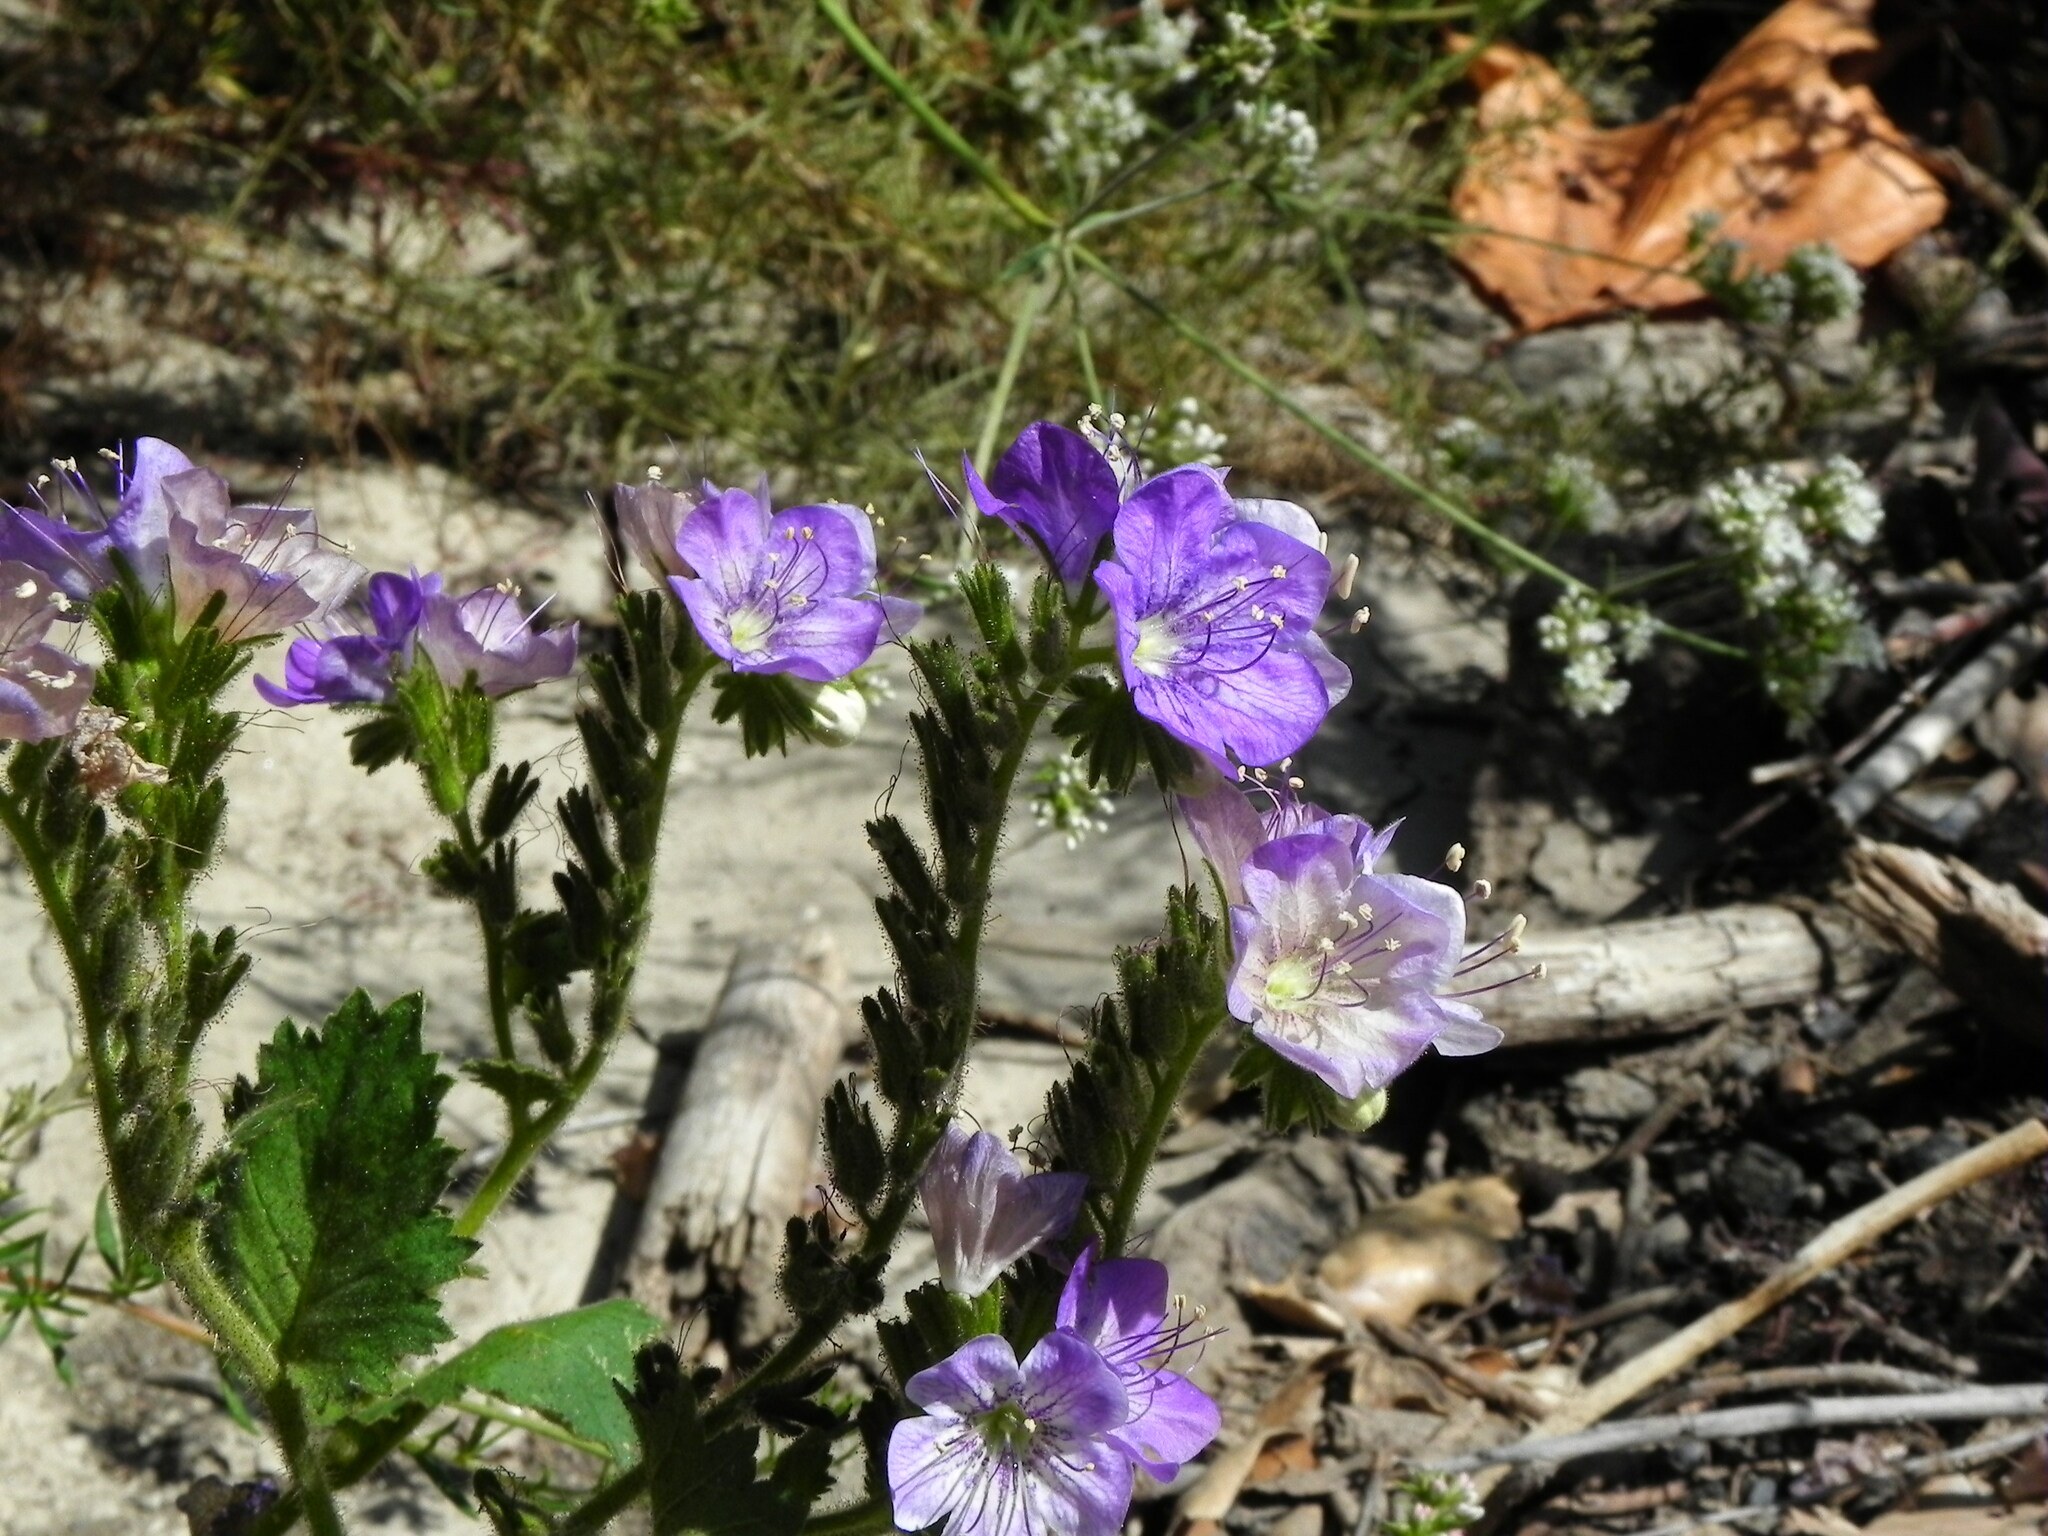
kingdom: Plantae
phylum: Tracheophyta
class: Magnoliopsida
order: Boraginales
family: Hydrophyllaceae
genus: Phacelia
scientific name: Phacelia grandiflora
